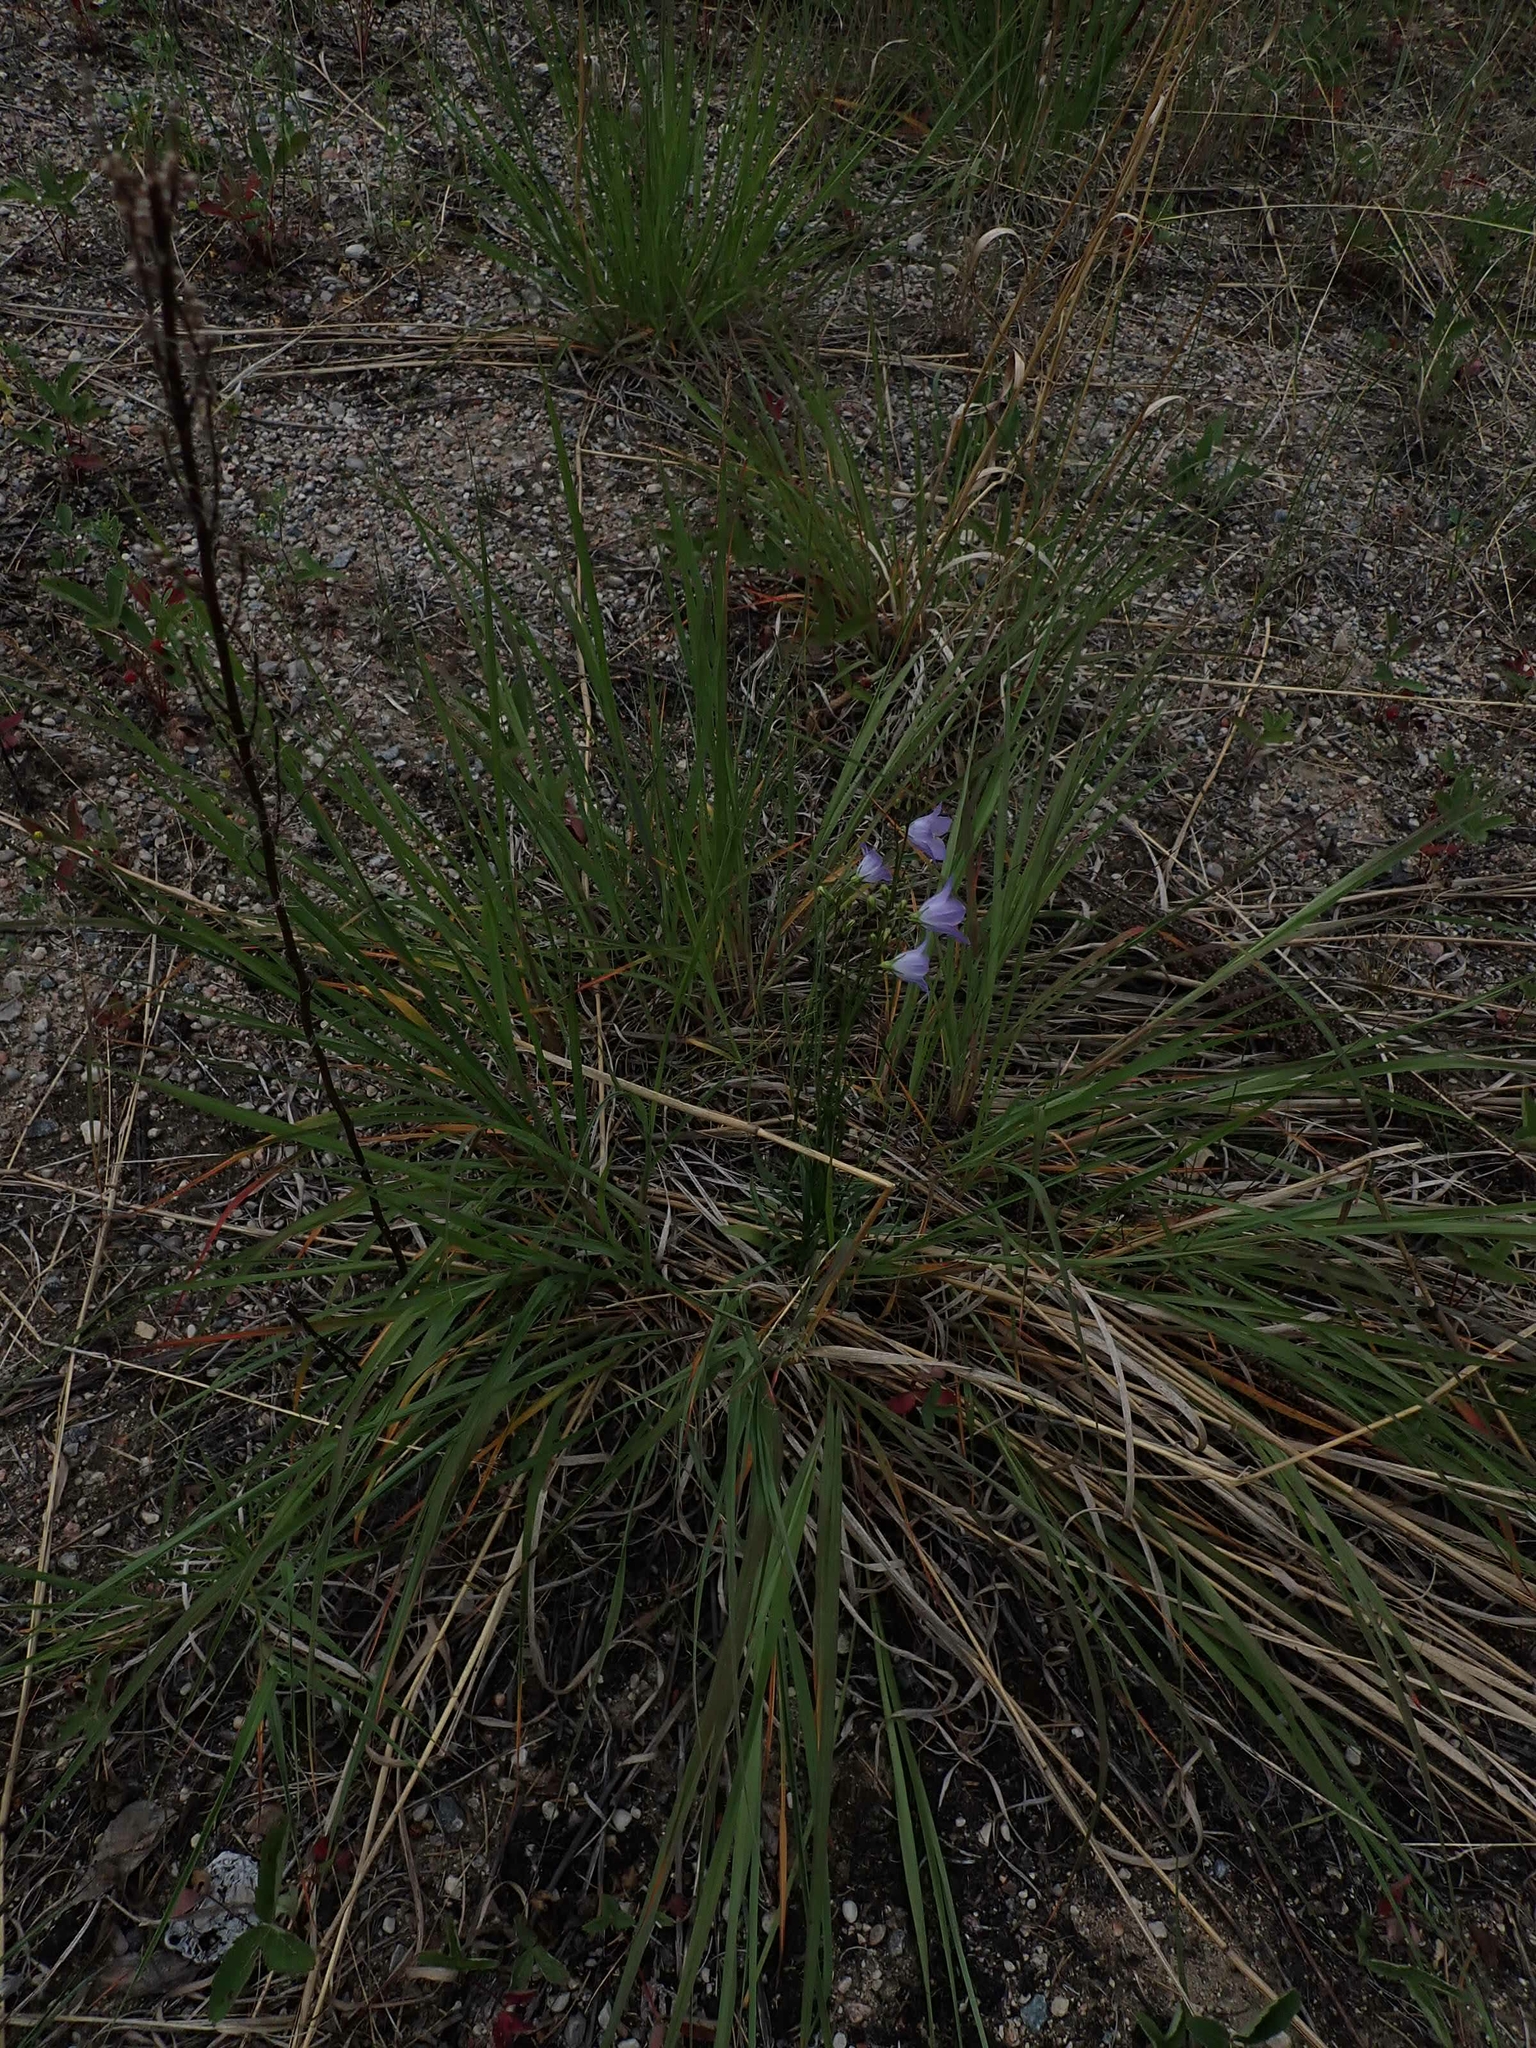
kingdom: Plantae
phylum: Tracheophyta
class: Magnoliopsida
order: Asterales
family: Campanulaceae
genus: Campanula
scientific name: Campanula petiolata
